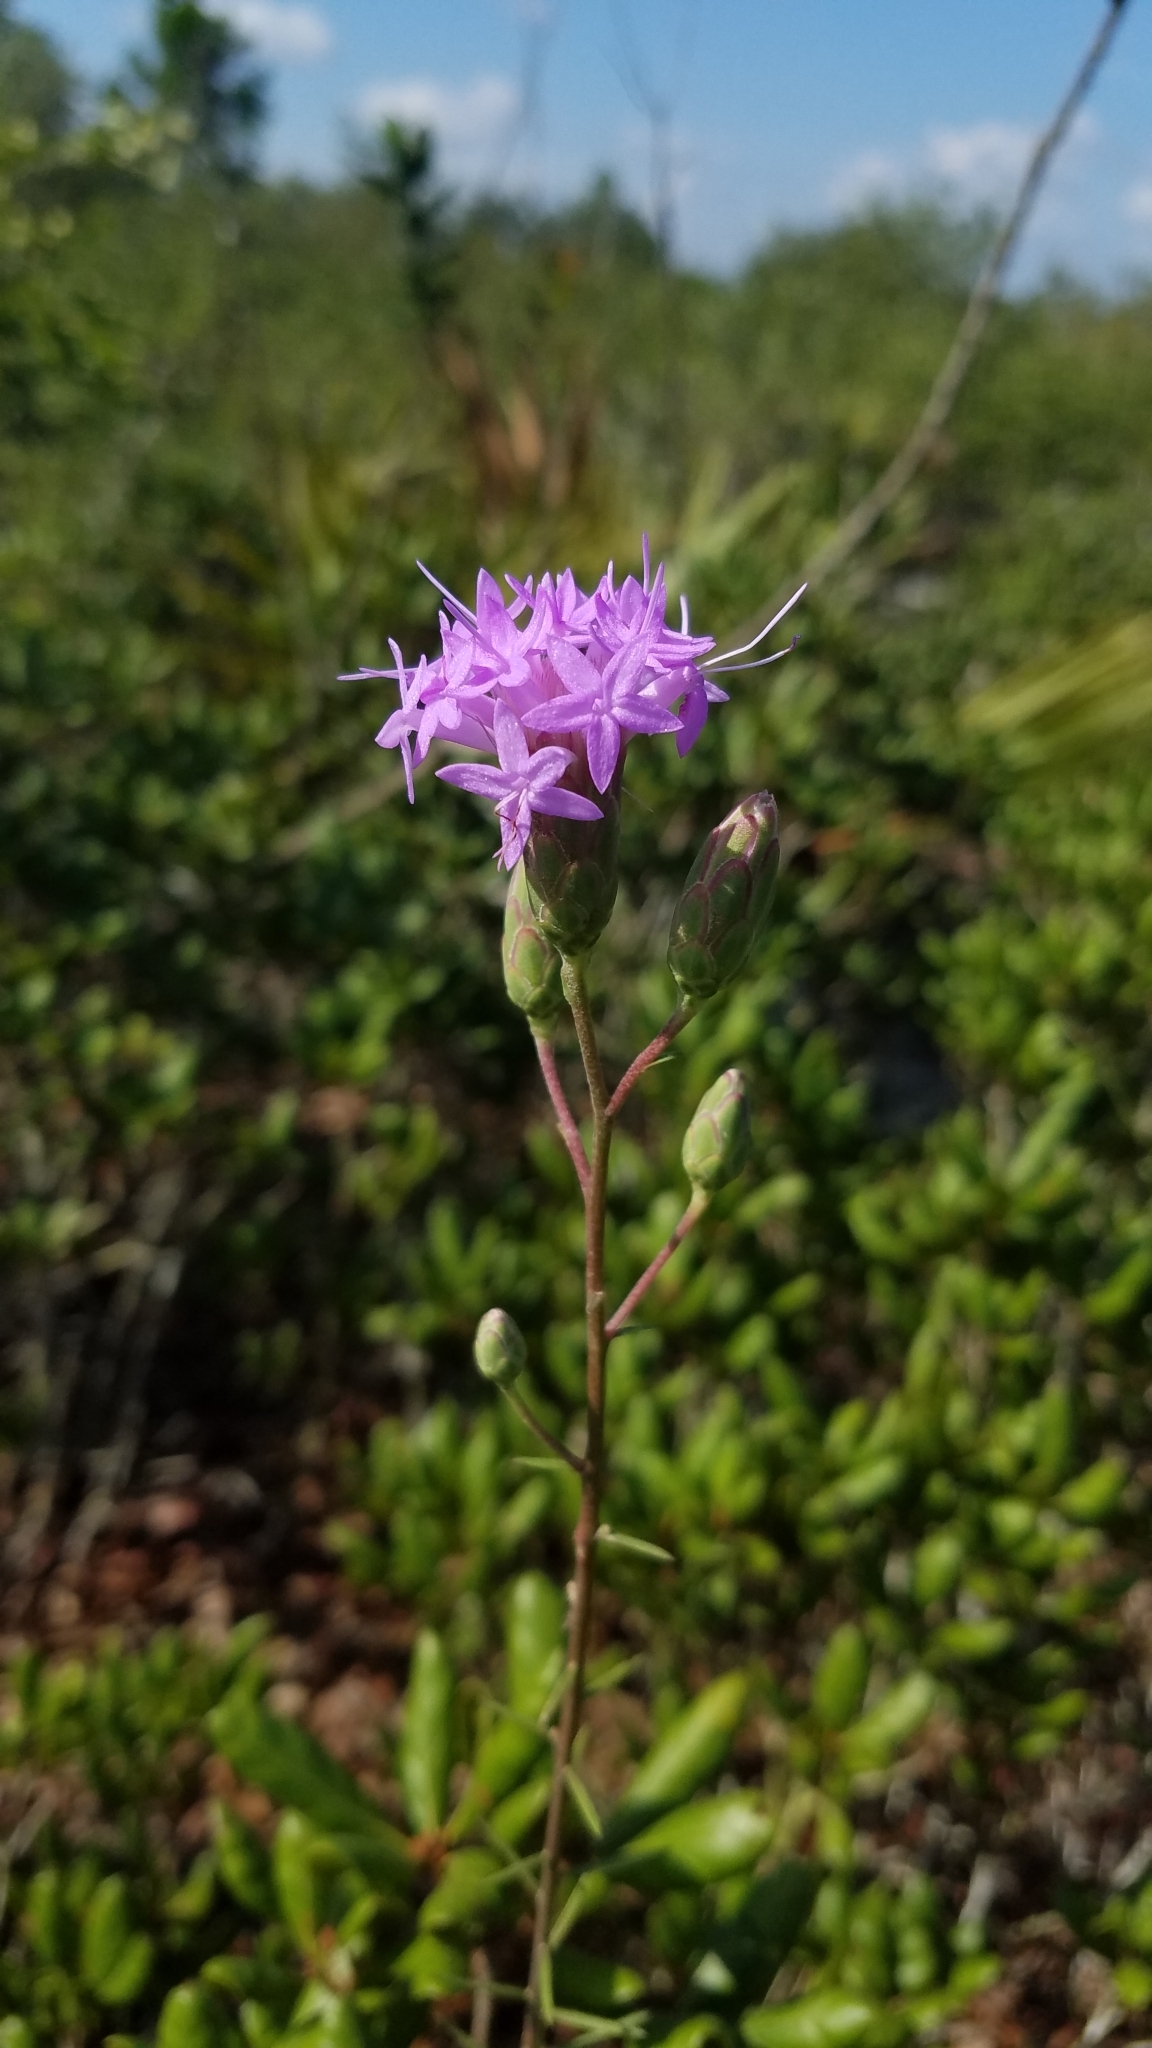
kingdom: Plantae
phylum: Tracheophyta
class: Magnoliopsida
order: Asterales
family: Asteraceae
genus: Liatris
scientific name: Liatris ohlingerae
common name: Scrub blazingstar
